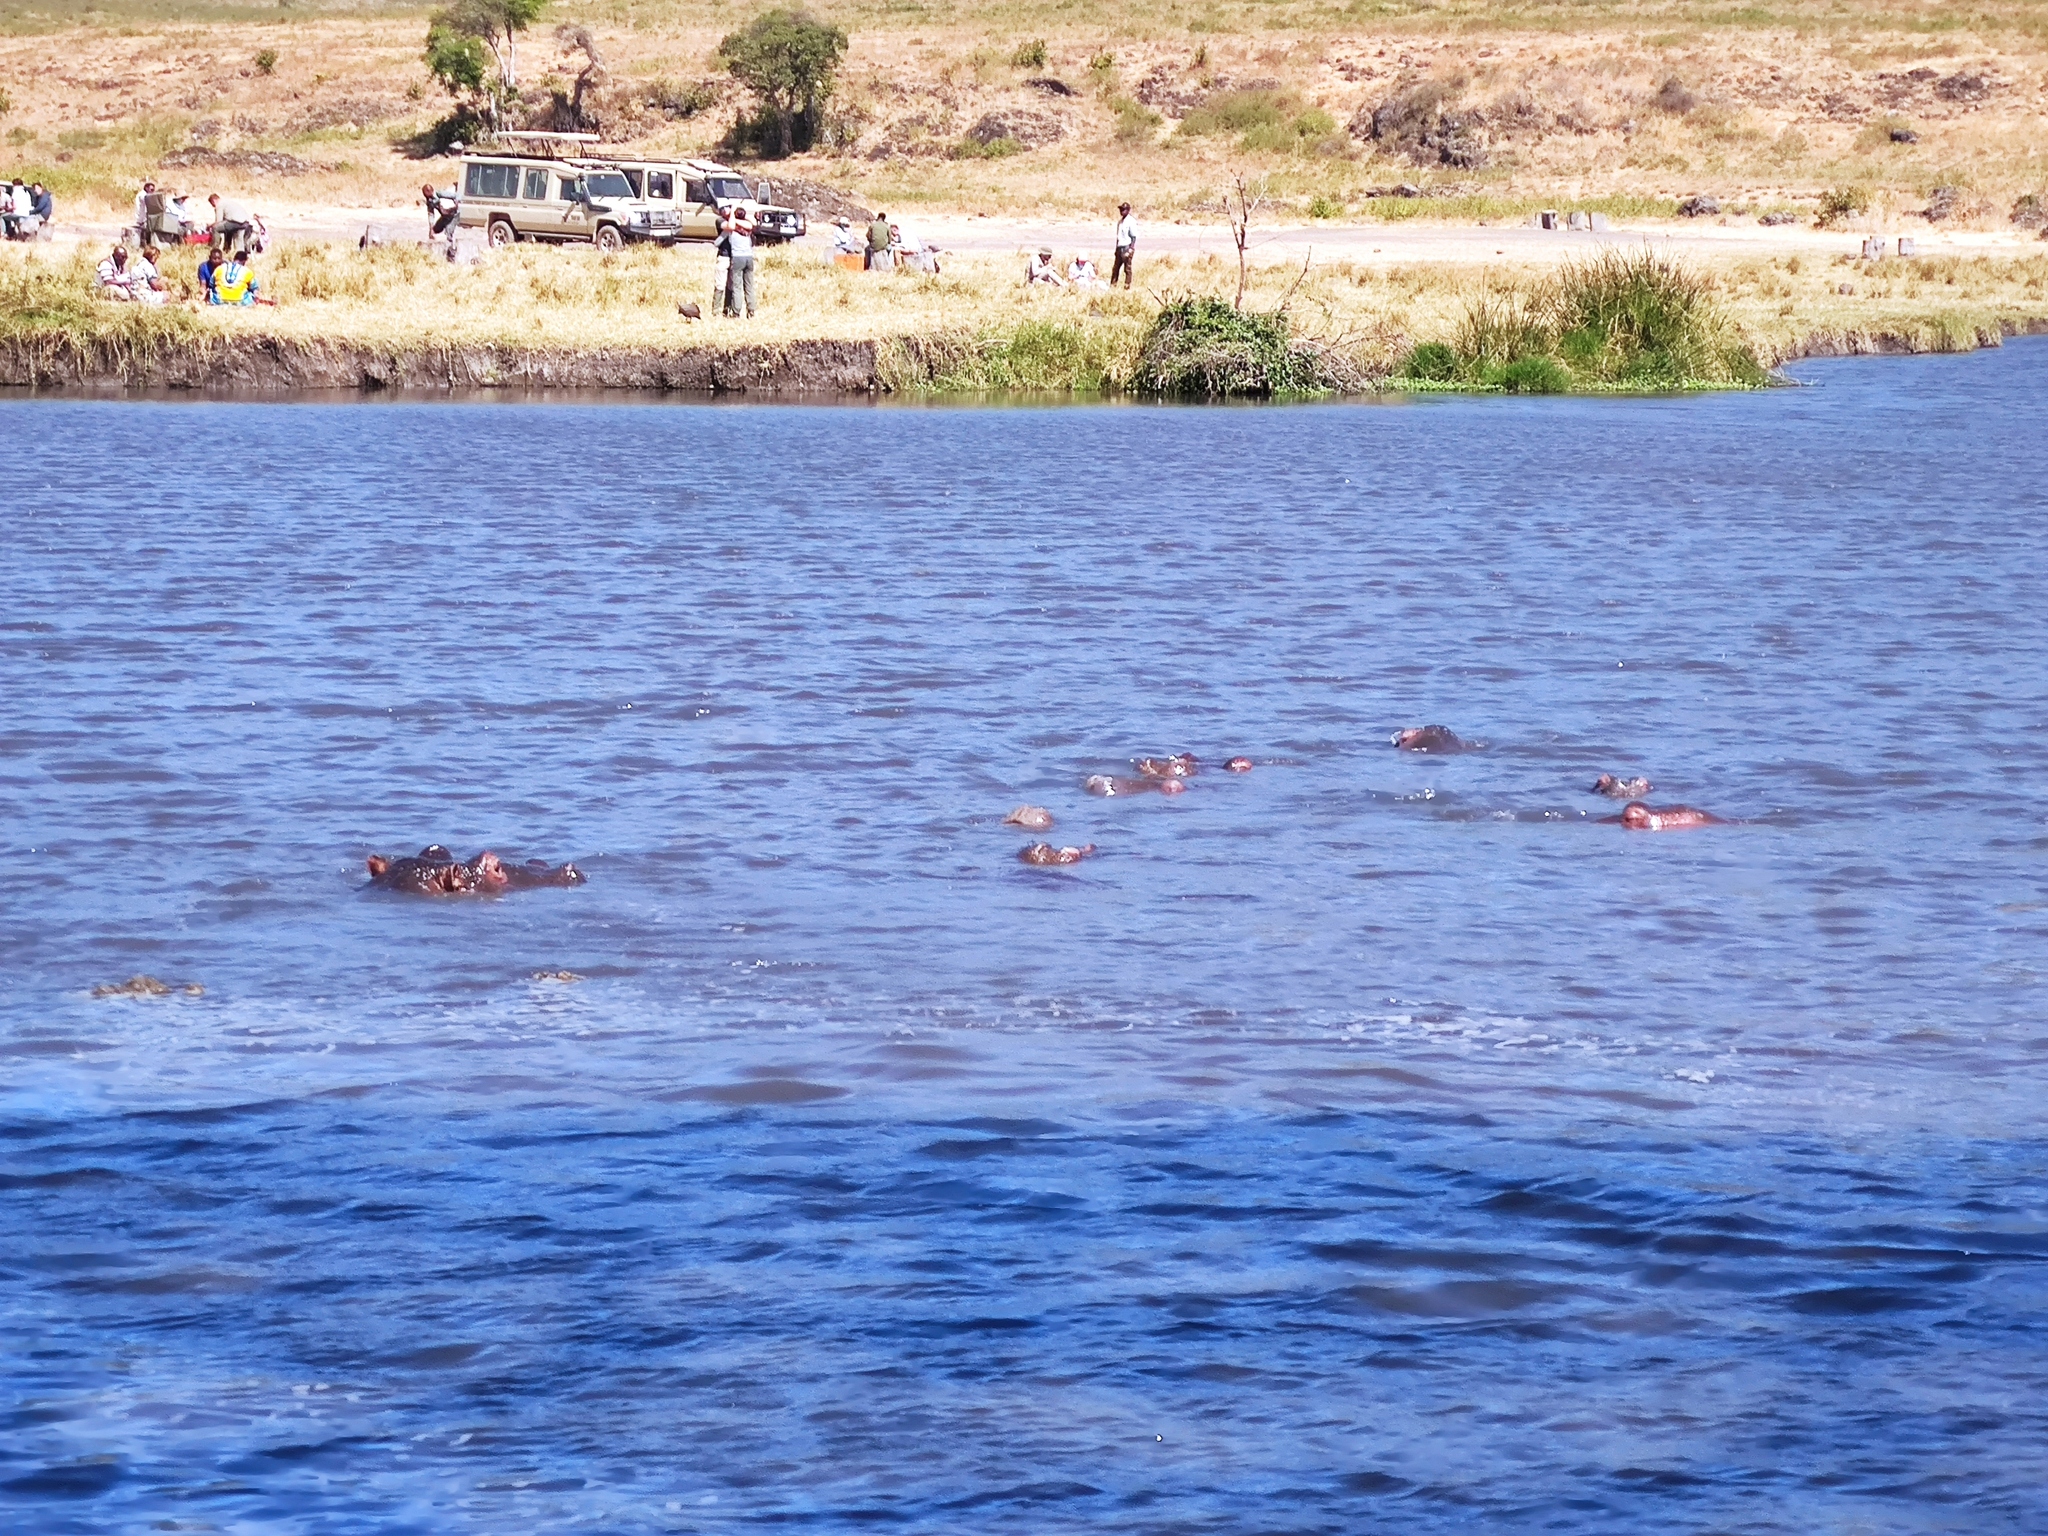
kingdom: Animalia
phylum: Chordata
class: Mammalia
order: Artiodactyla
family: Hippopotamidae
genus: Hippopotamus
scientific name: Hippopotamus amphibius
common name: Common hippopotamus
